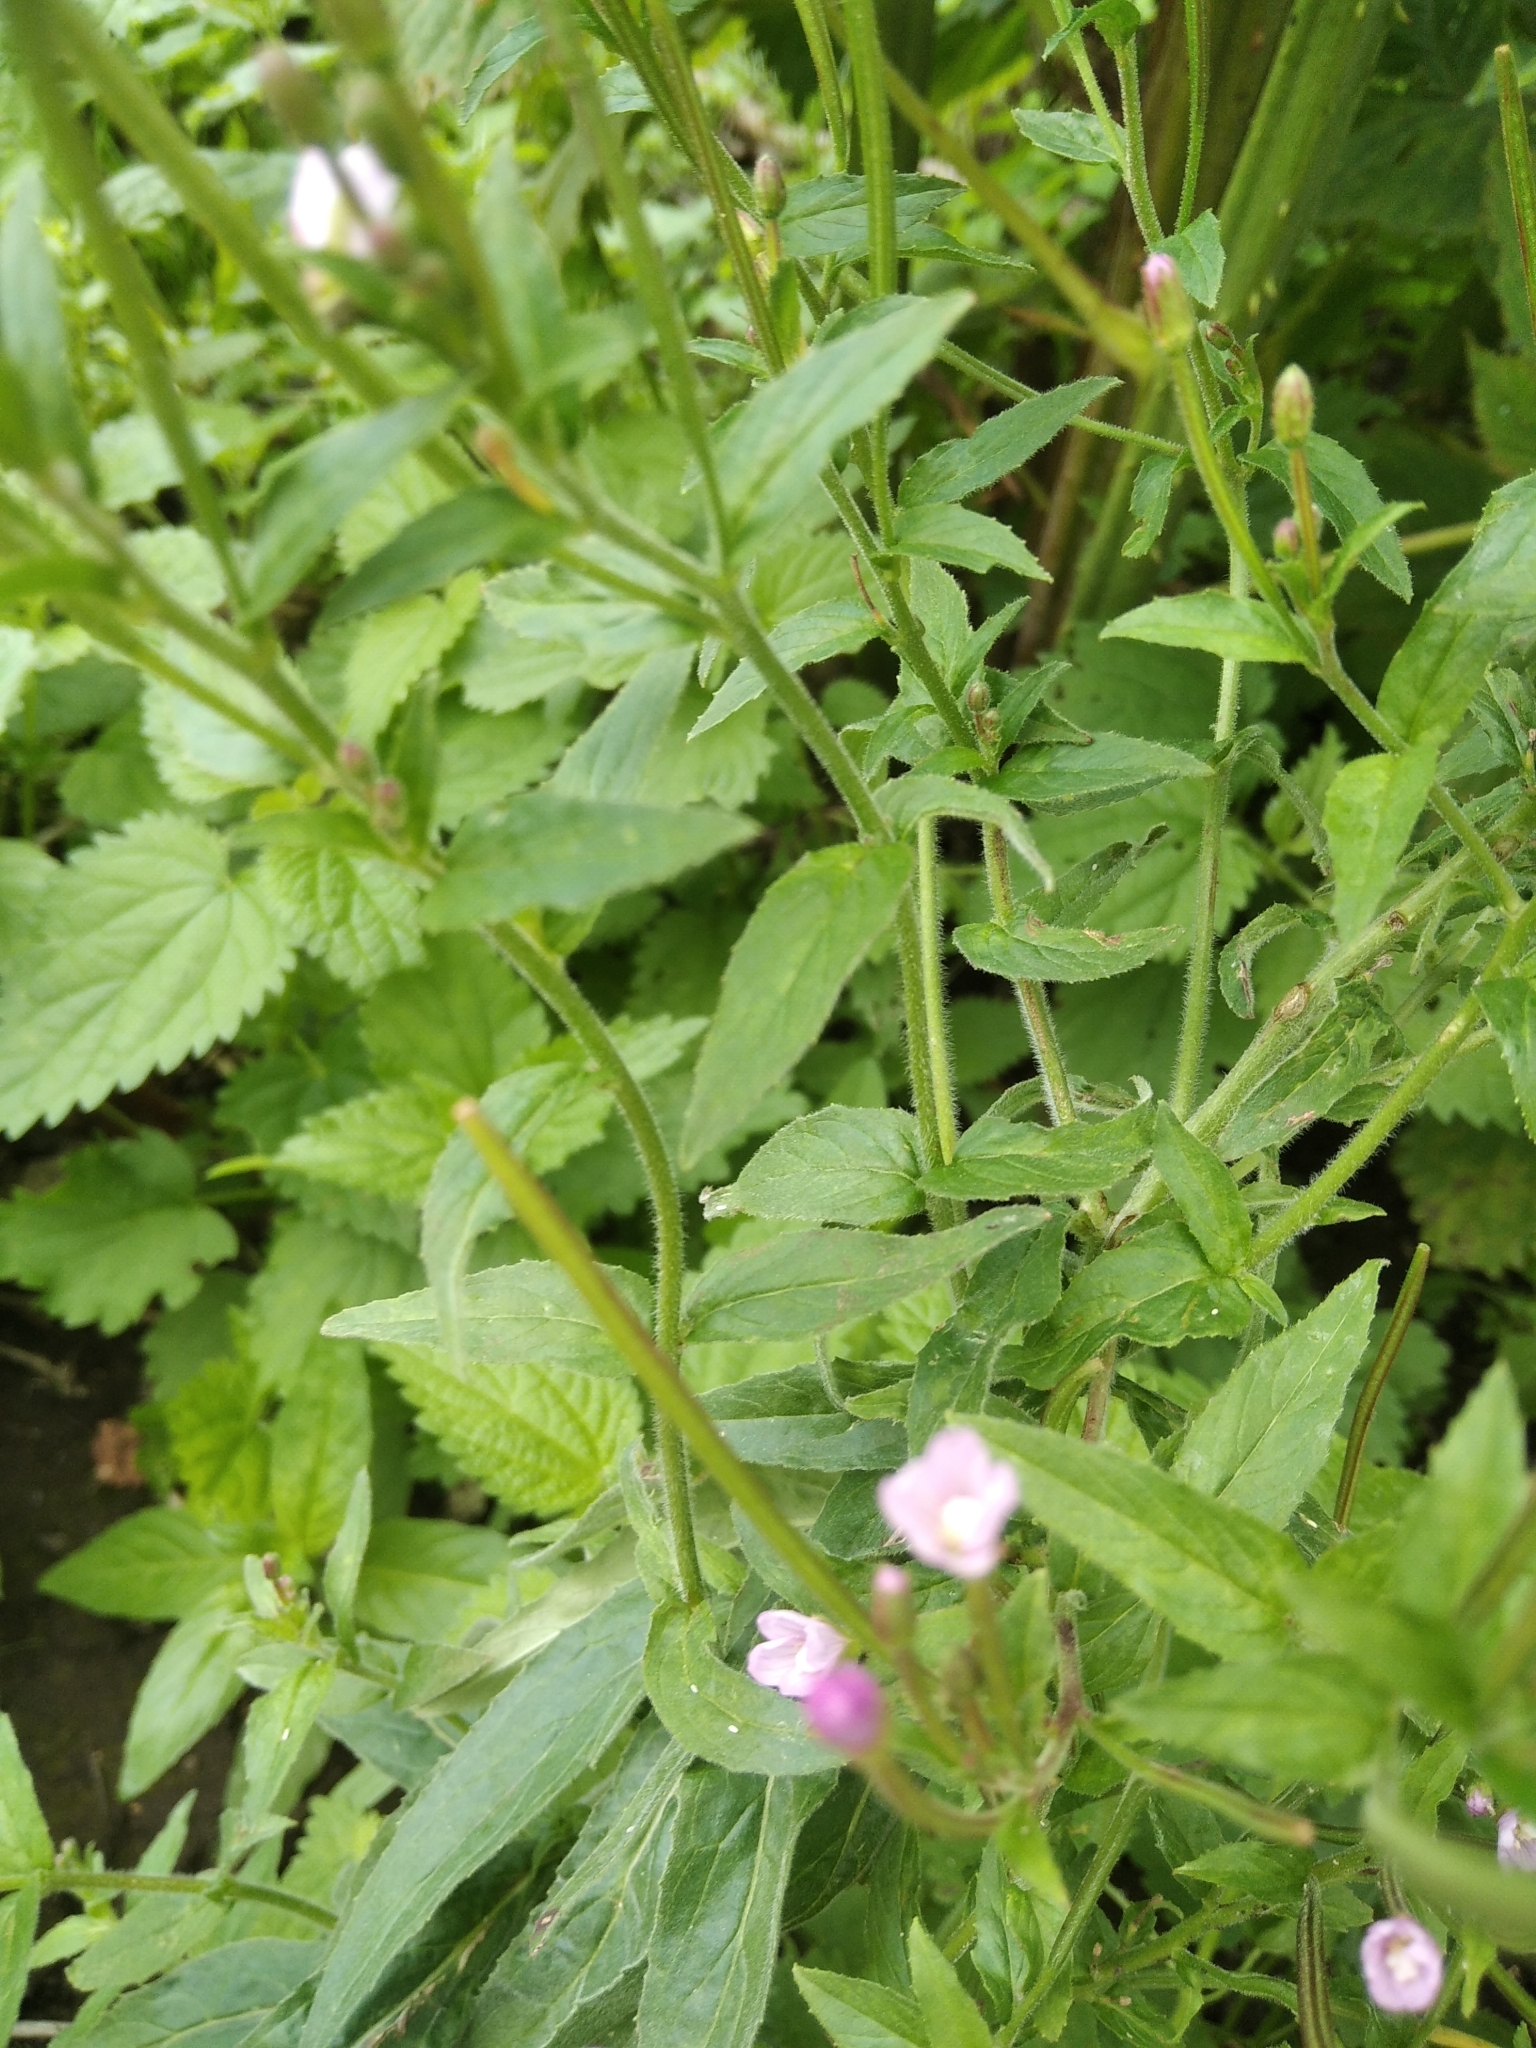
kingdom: Plantae
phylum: Tracheophyta
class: Magnoliopsida
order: Myrtales
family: Onagraceae
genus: Epilobium
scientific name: Epilobium parviflorum
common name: Hoary willowherb
